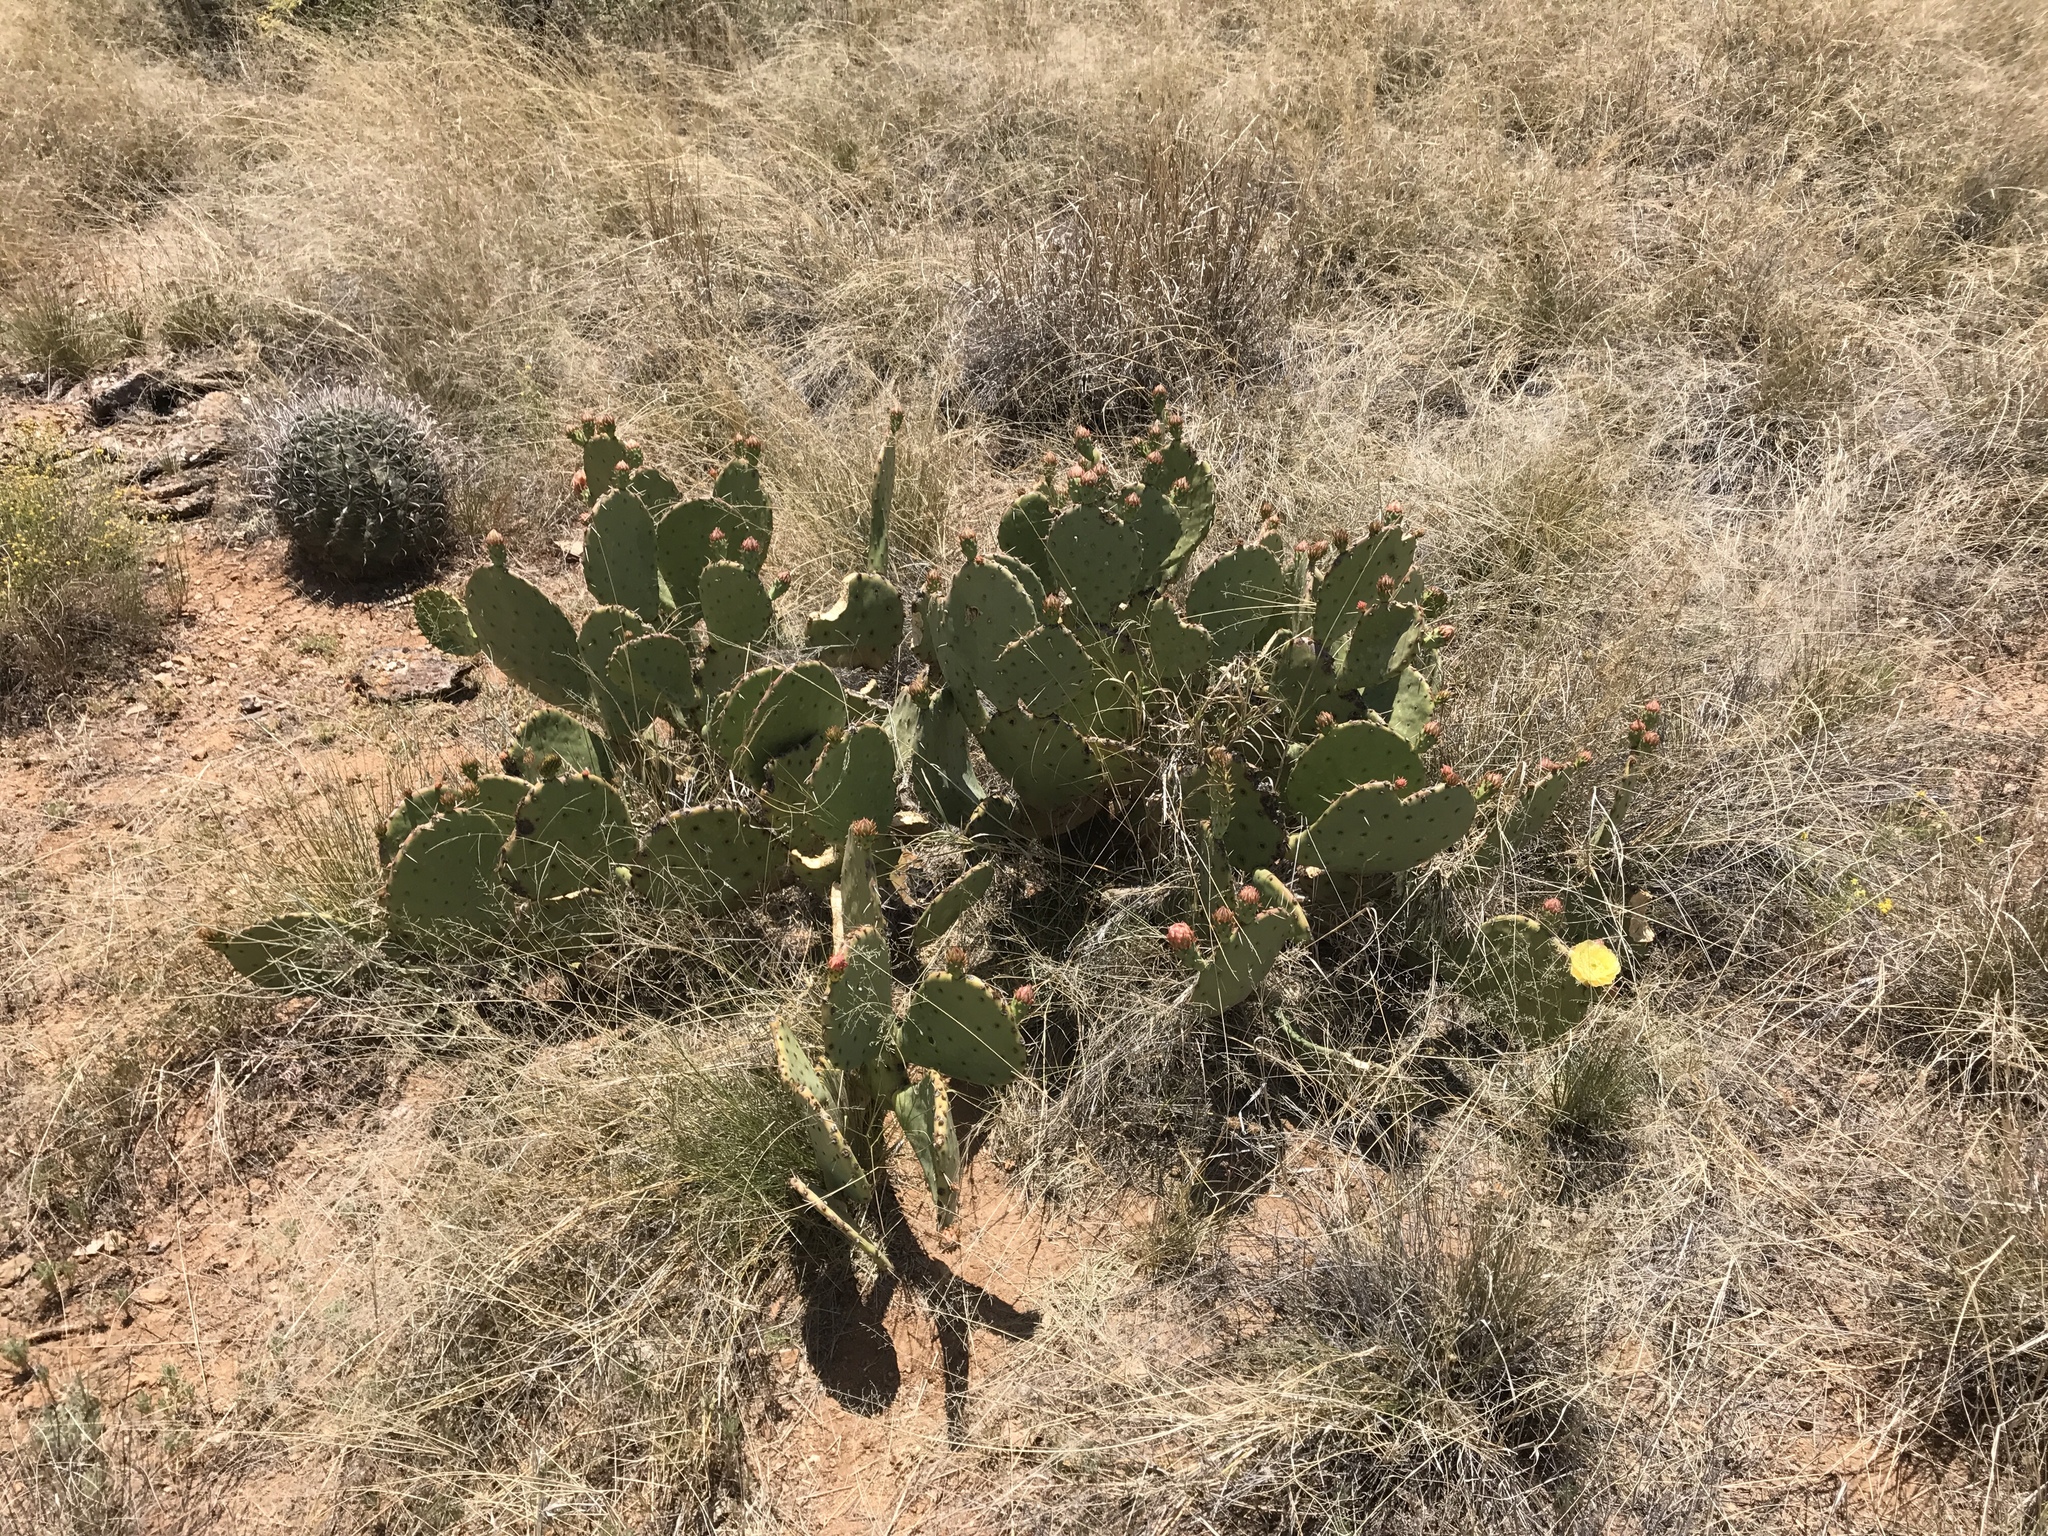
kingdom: Plantae
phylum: Tracheophyta
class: Magnoliopsida
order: Caryophyllales
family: Cactaceae
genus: Opuntia
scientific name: Opuntia chlorotica
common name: Dollar-joint prickly-pear
